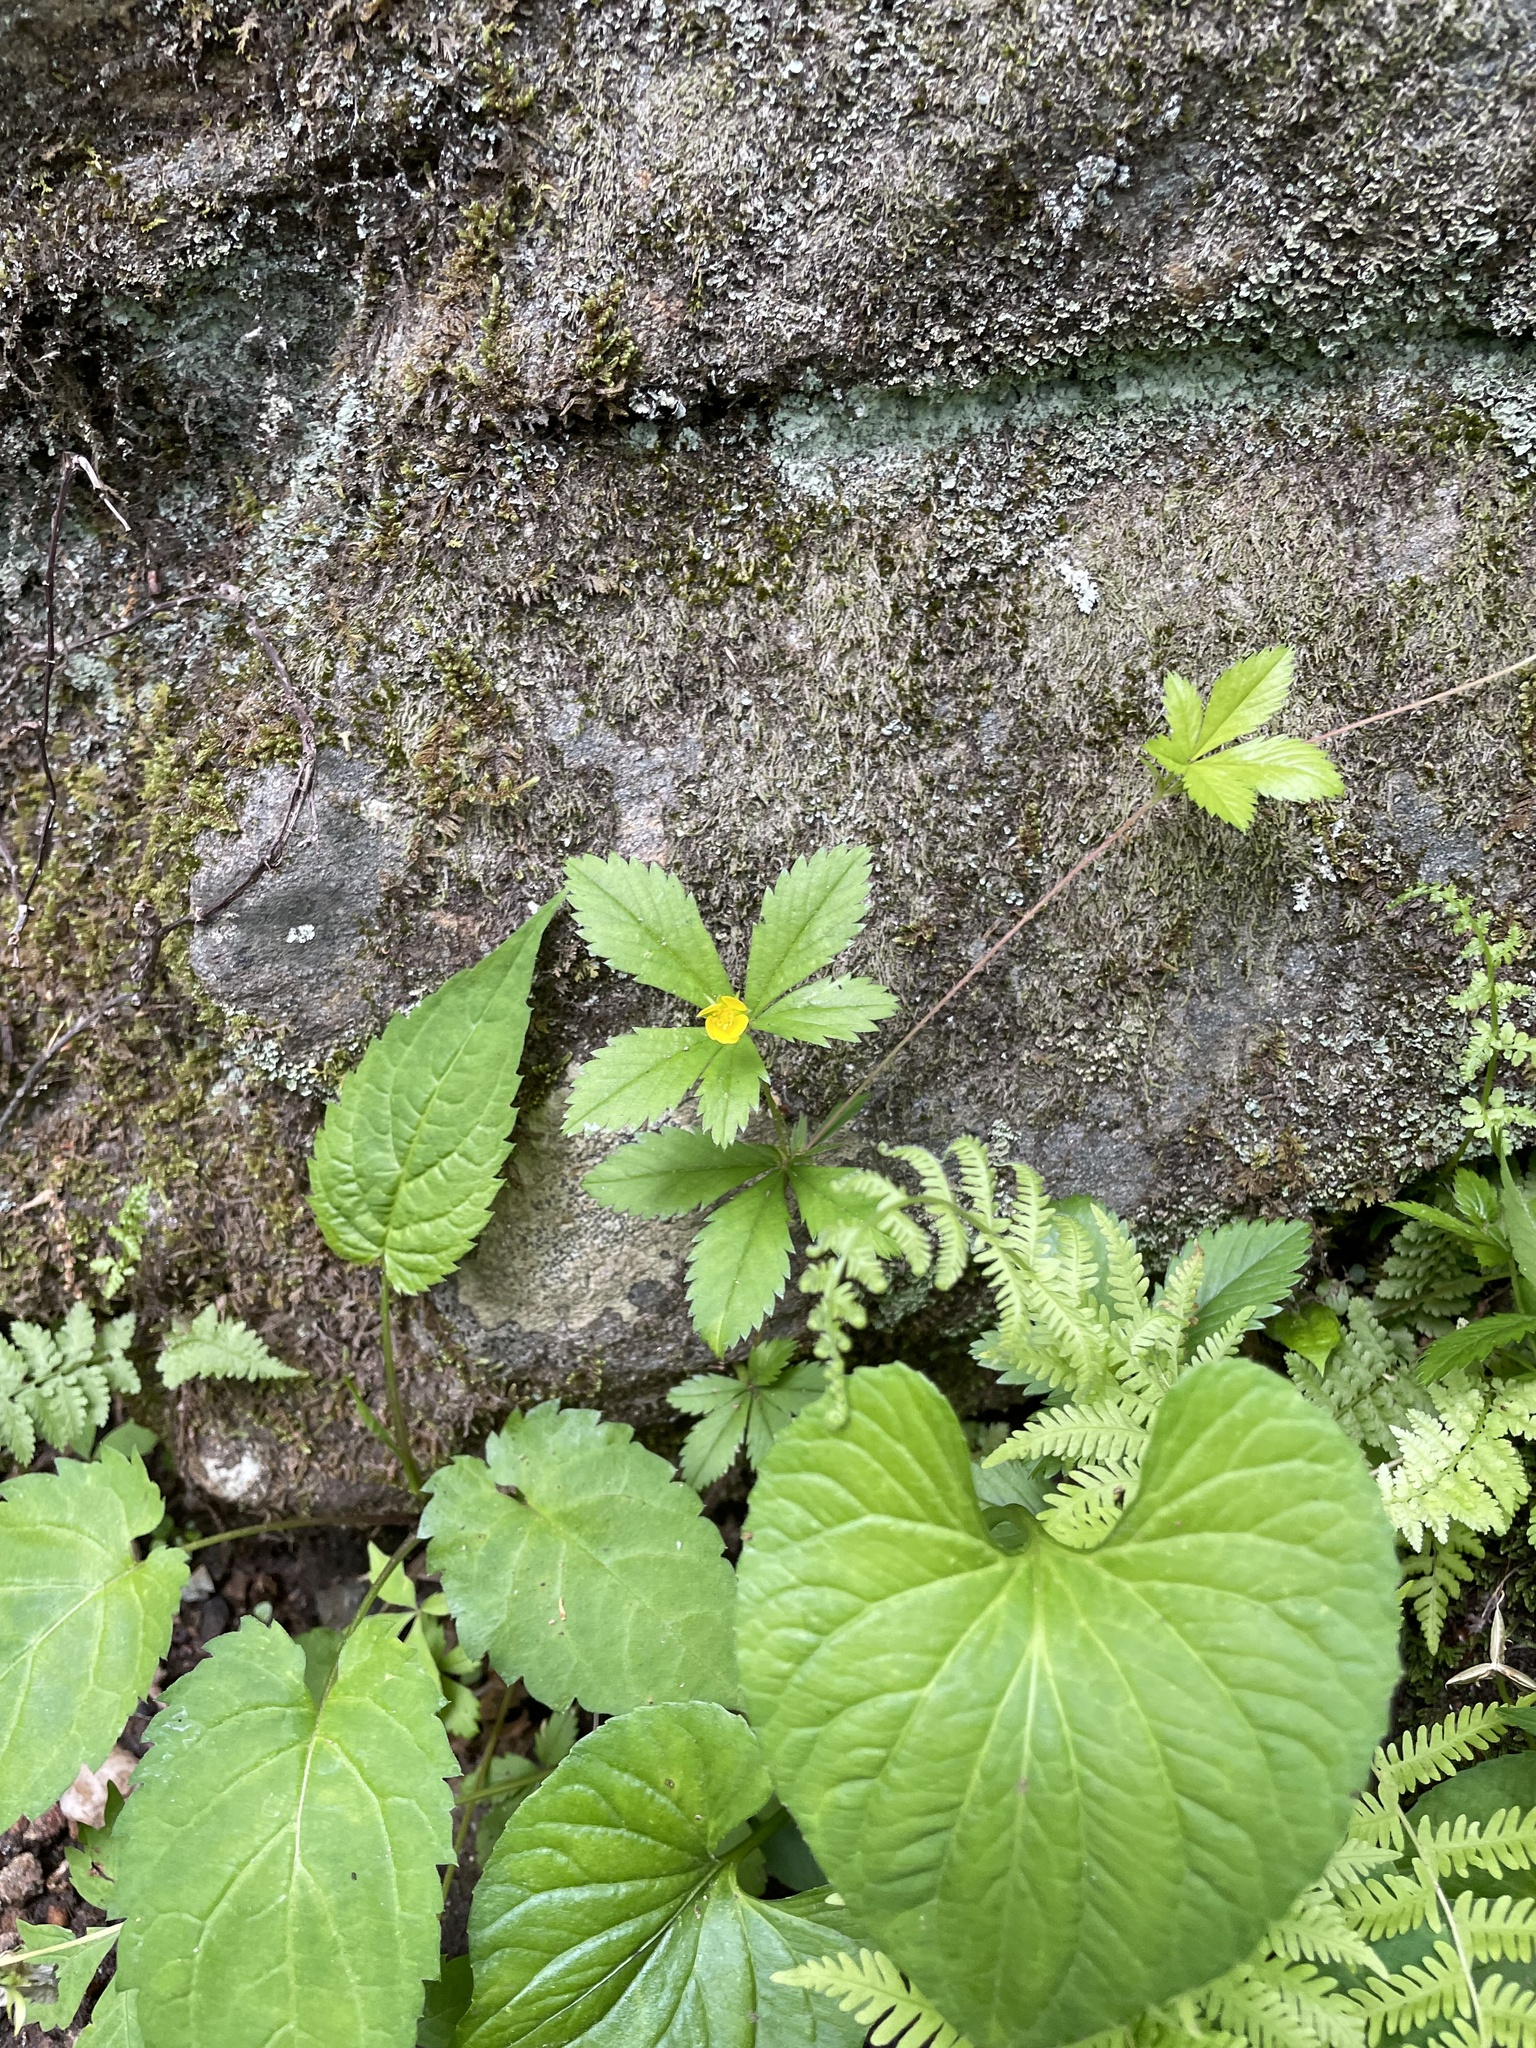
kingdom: Plantae
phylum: Tracheophyta
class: Magnoliopsida
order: Rosales
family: Rosaceae
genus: Potentilla
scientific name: Potentilla simplex
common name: Old field cinquefoil
